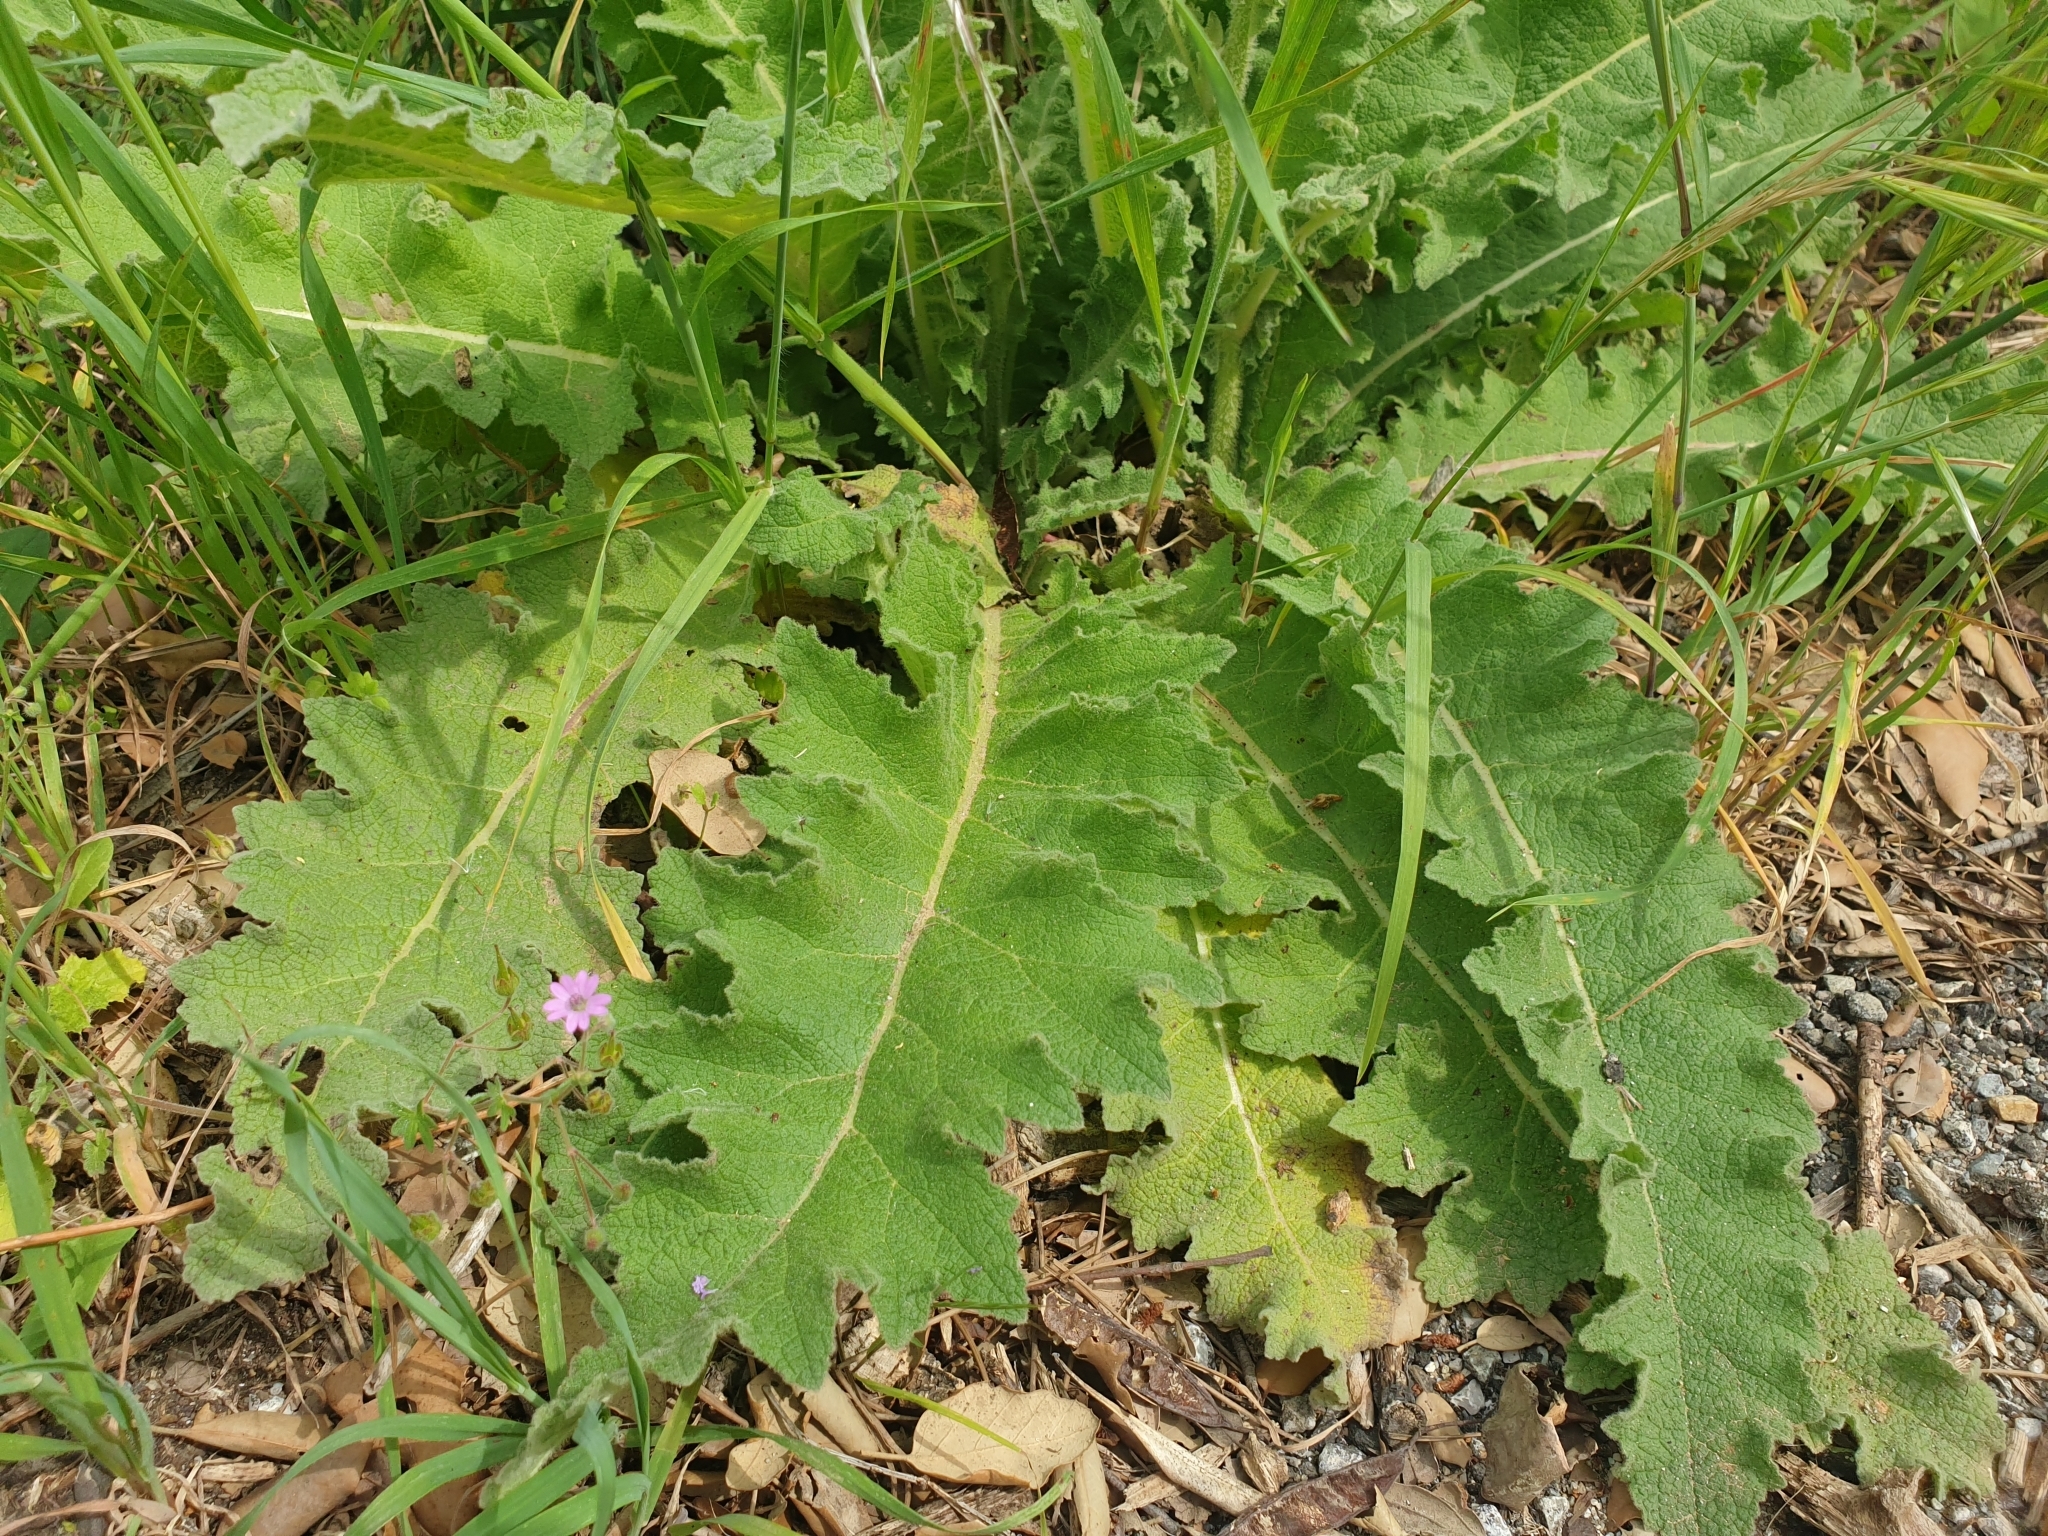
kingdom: Plantae
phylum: Tracheophyta
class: Magnoliopsida
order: Lamiales
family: Scrophulariaceae
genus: Verbascum
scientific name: Verbascum sinuatum
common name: Wavyleaf mullein
